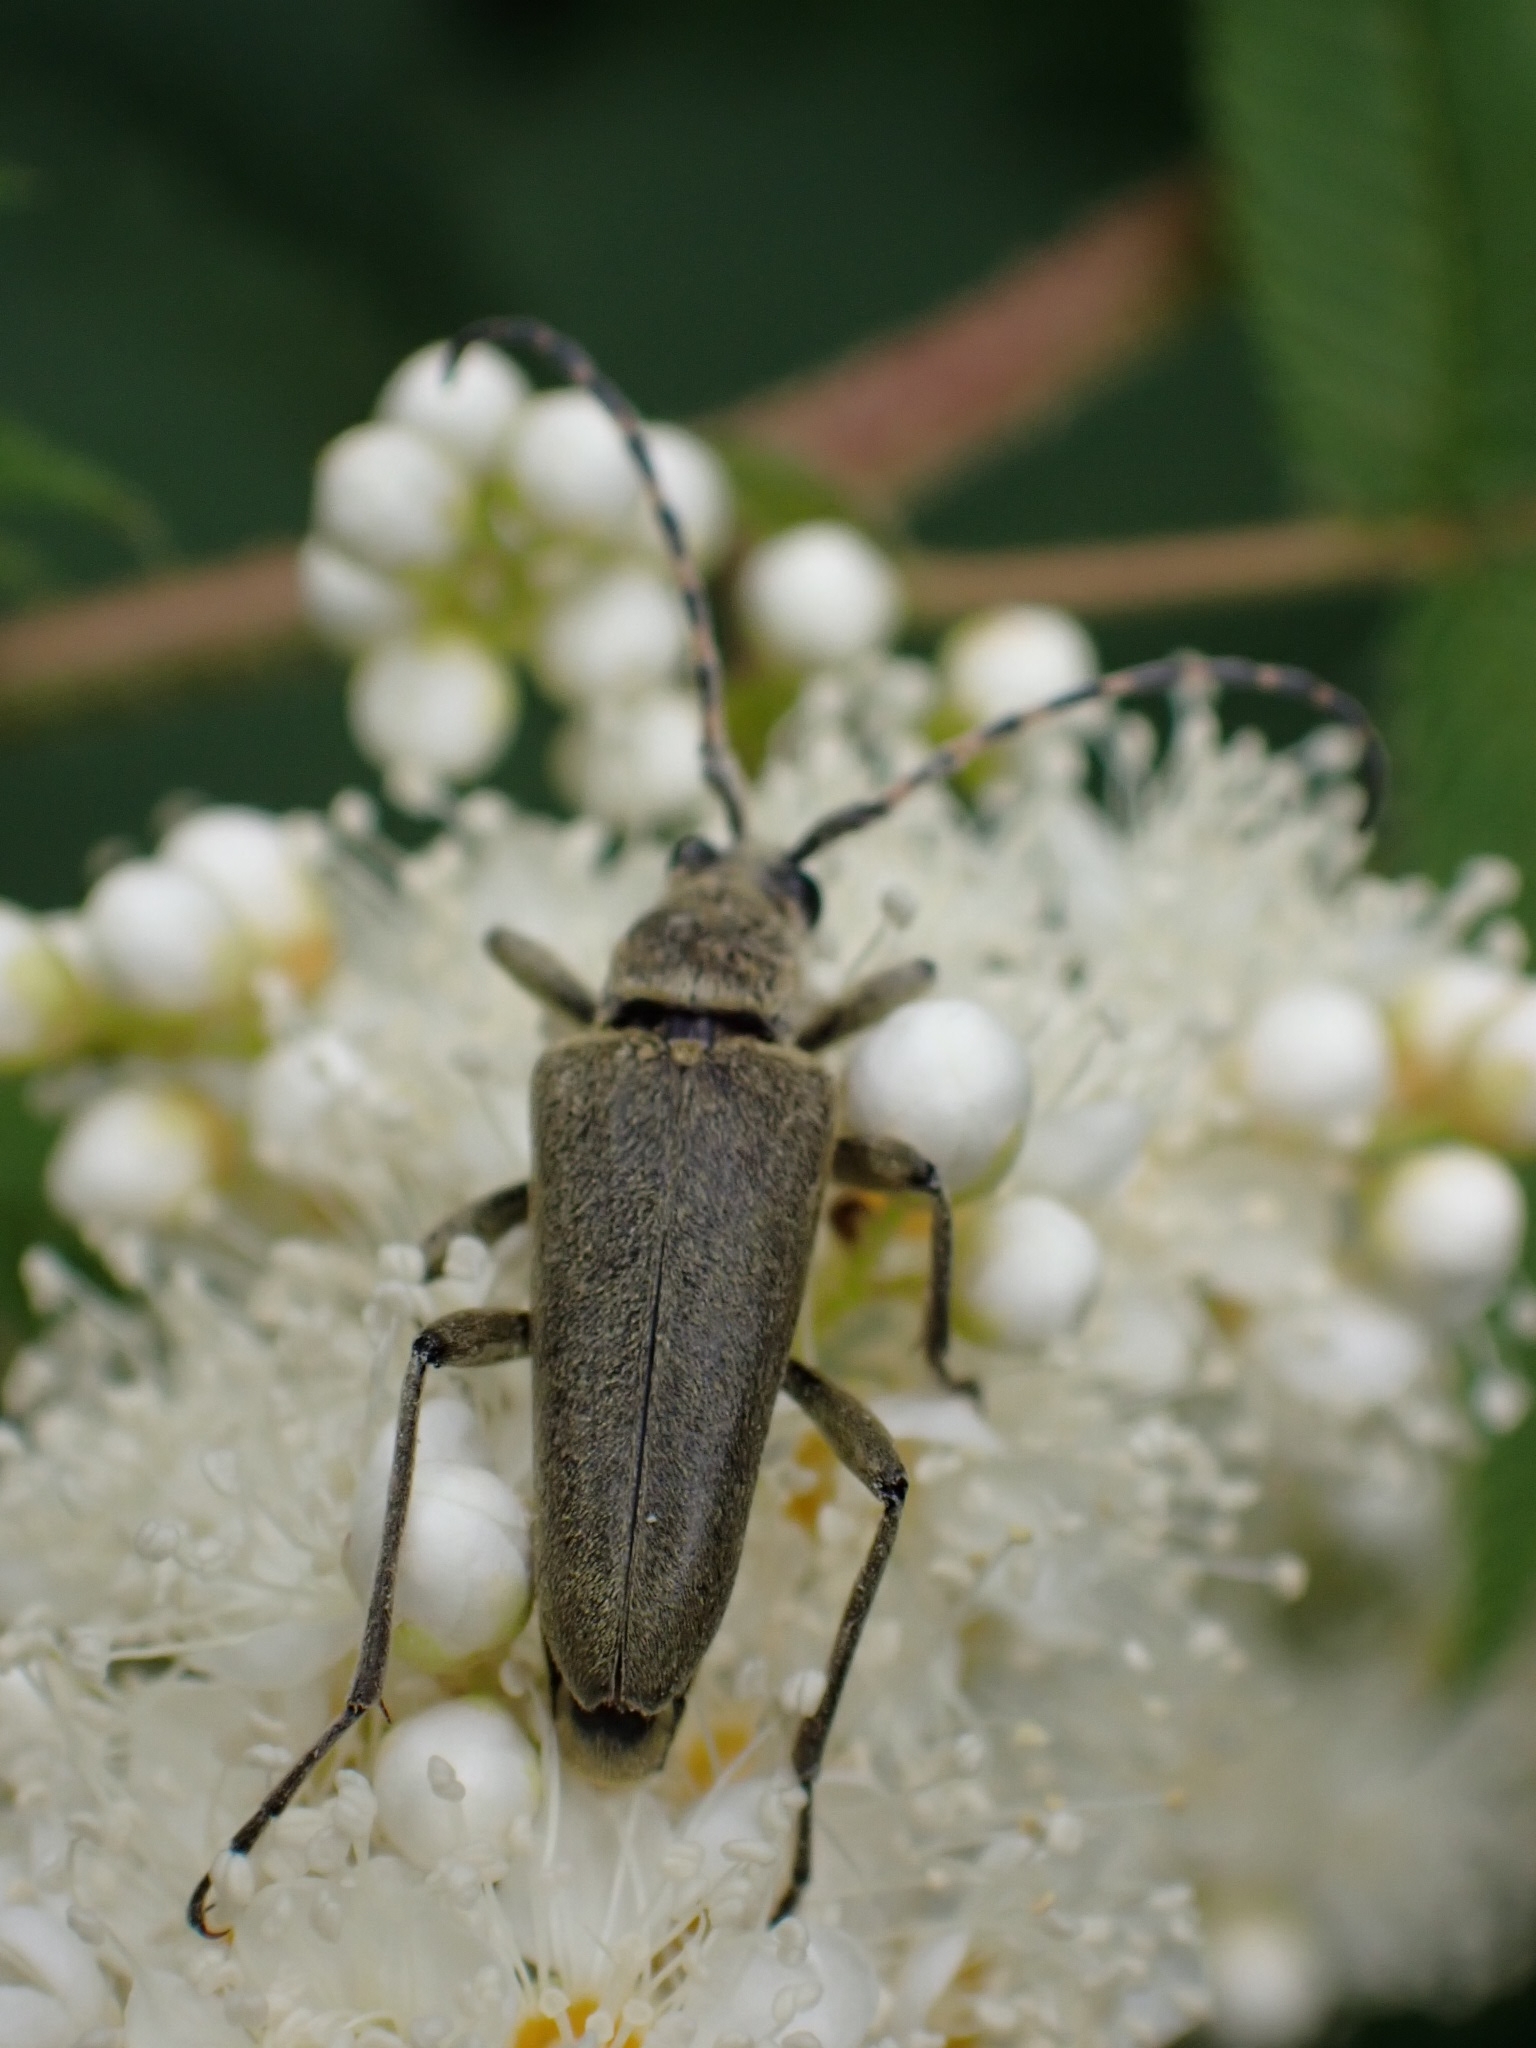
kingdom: Animalia
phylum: Arthropoda
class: Insecta
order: Coleoptera
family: Cerambycidae
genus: Lepturobosca
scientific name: Lepturobosca virens
